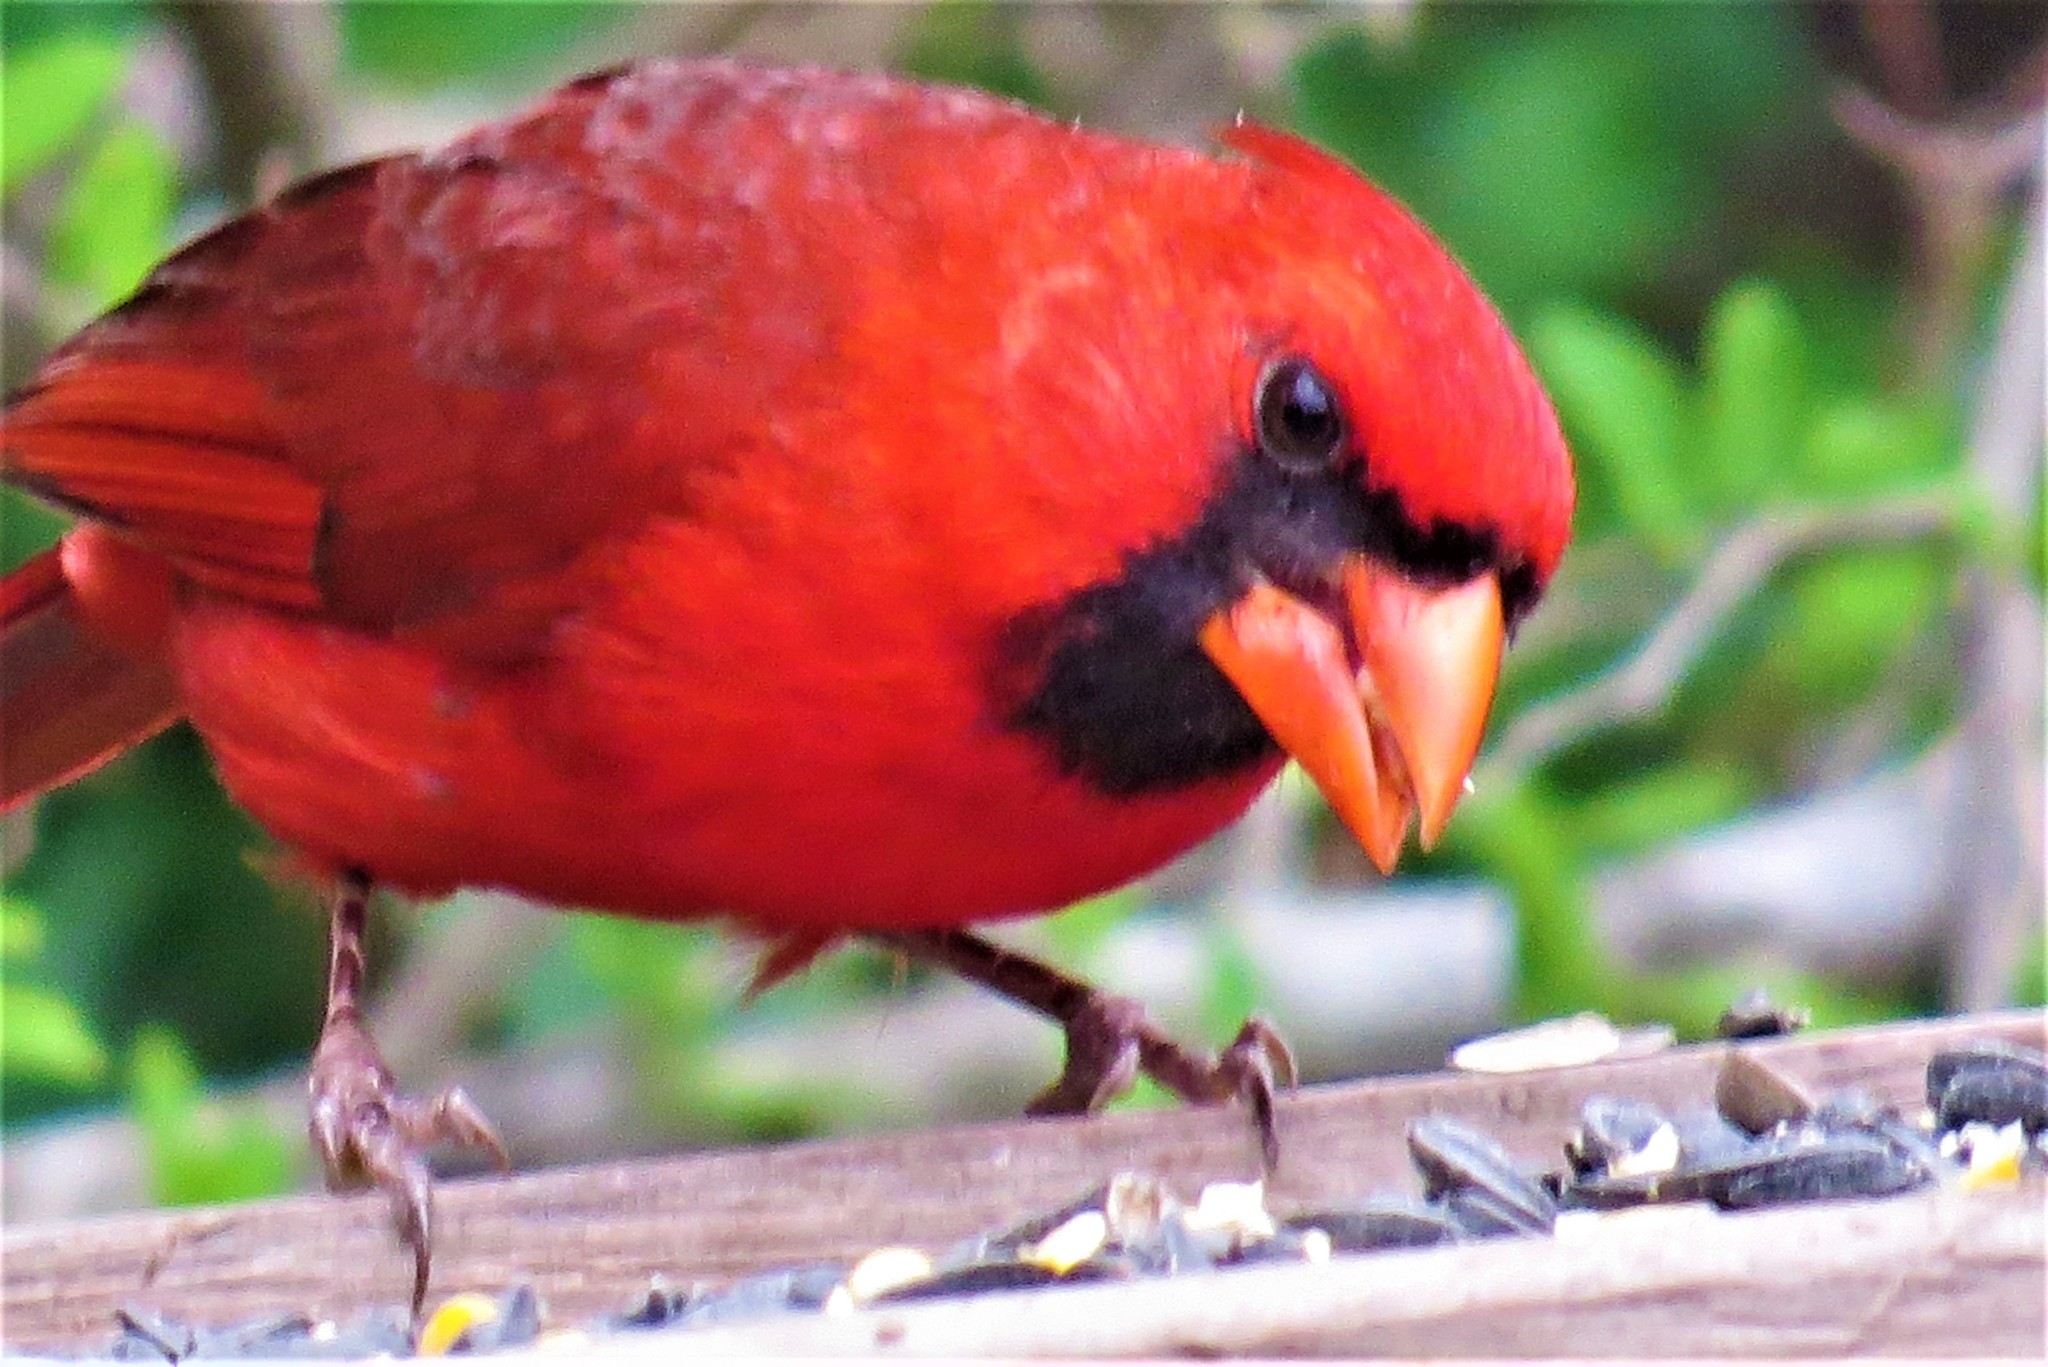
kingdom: Animalia
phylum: Chordata
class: Aves
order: Passeriformes
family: Cardinalidae
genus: Cardinalis
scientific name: Cardinalis cardinalis
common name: Northern cardinal
